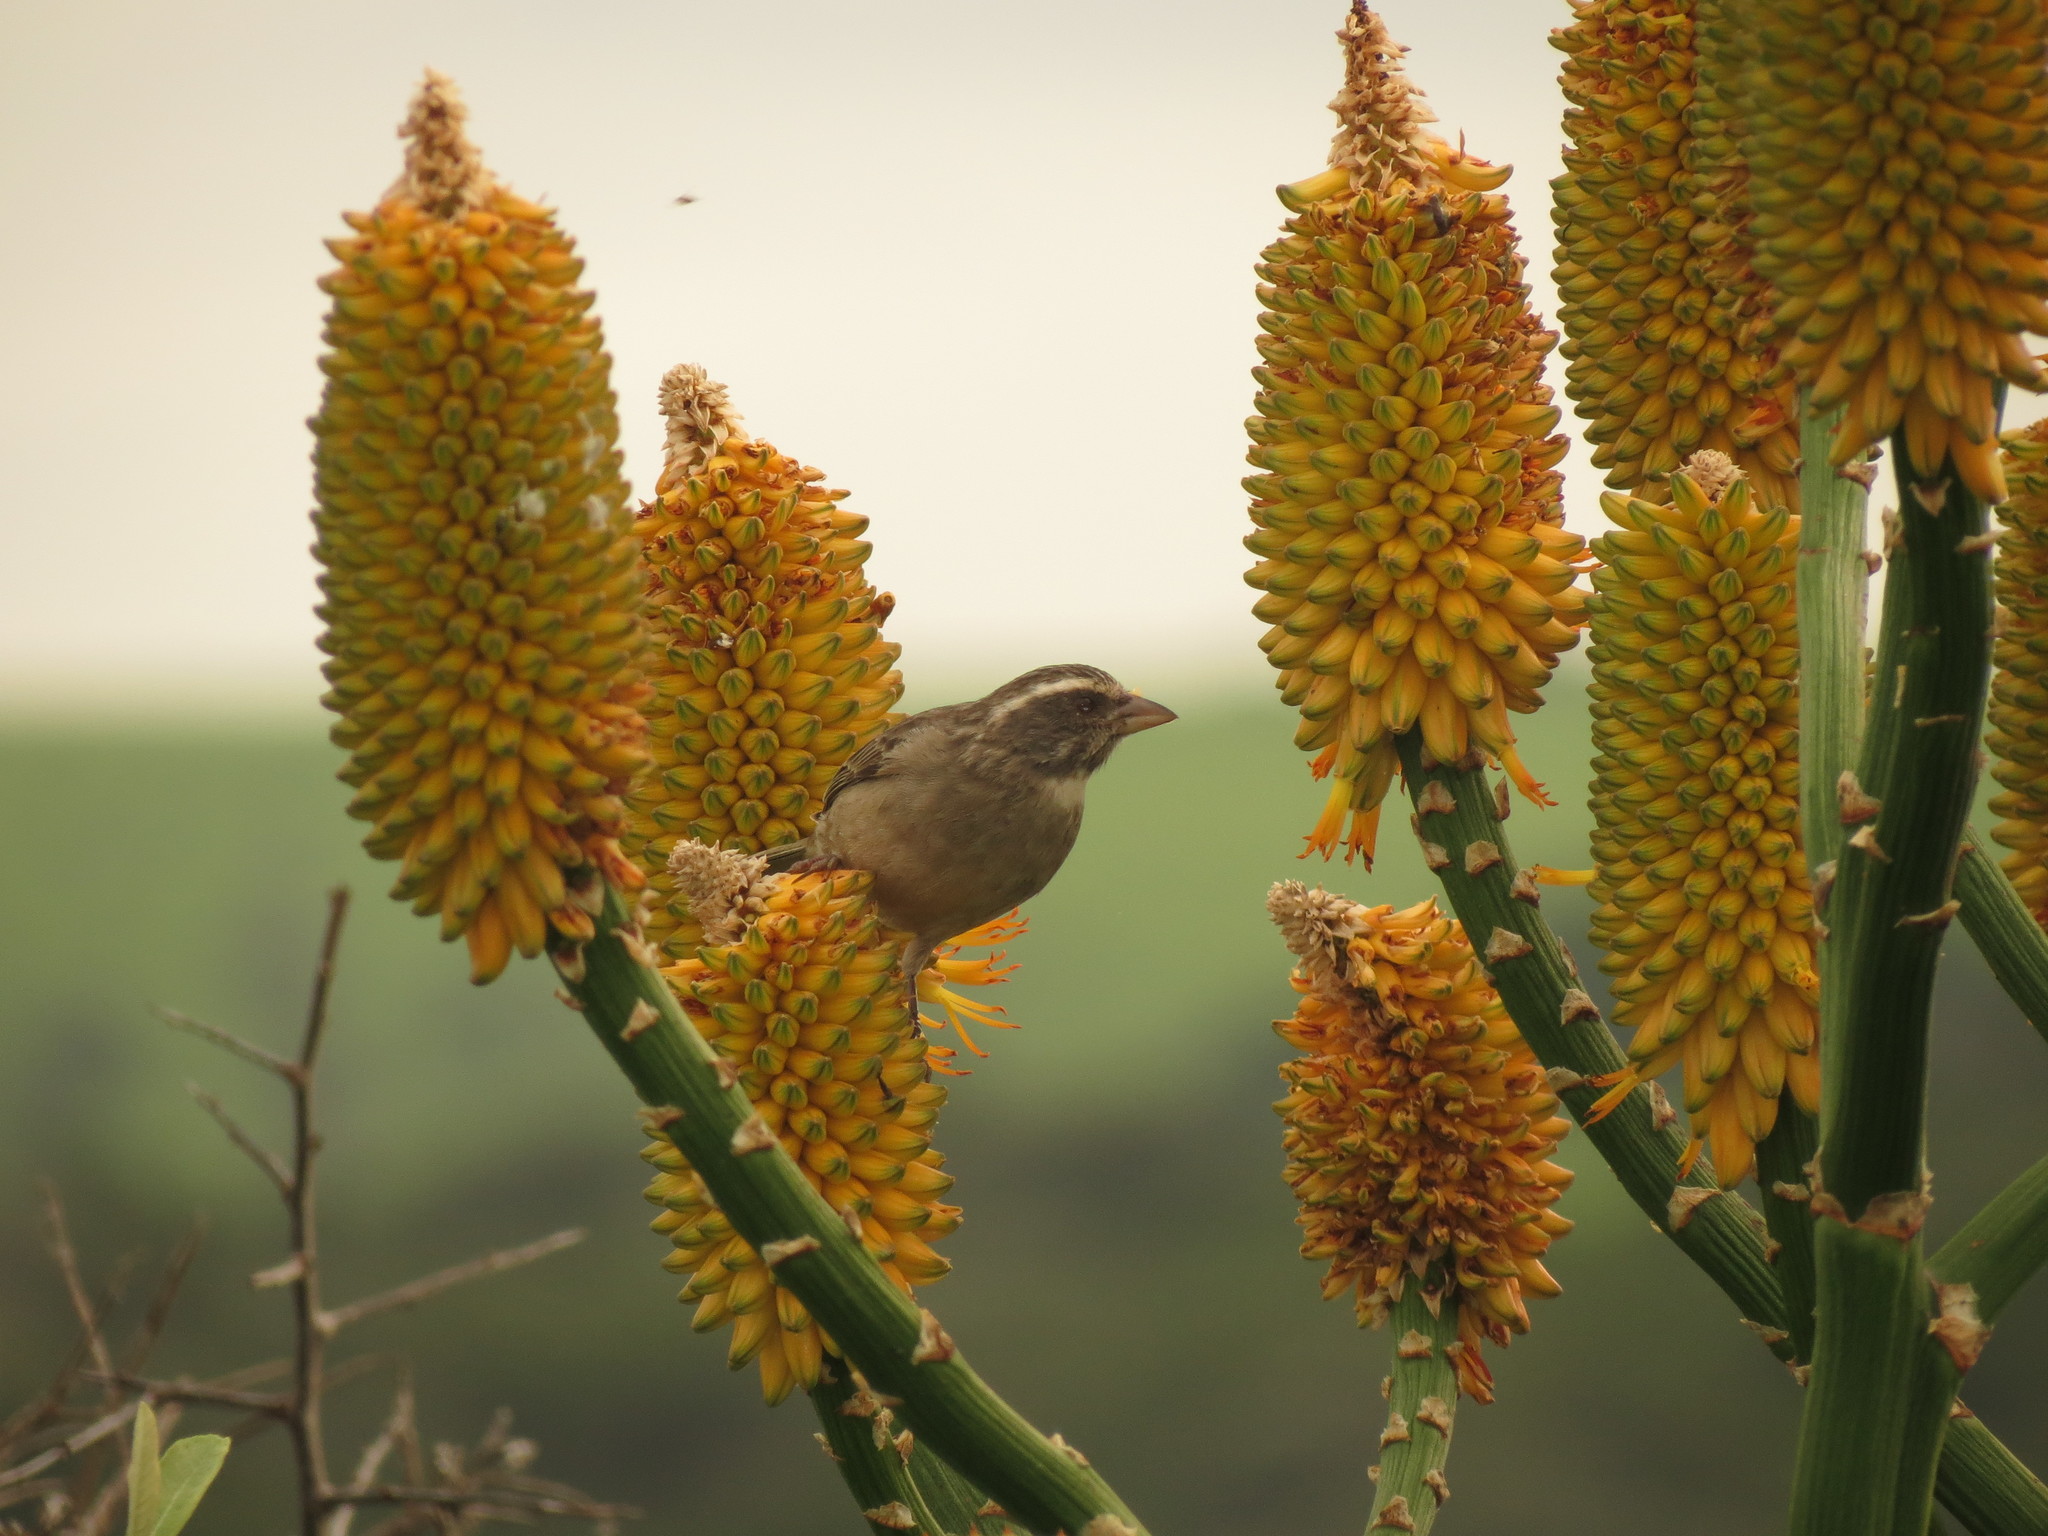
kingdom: Animalia
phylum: Chordata
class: Aves
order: Passeriformes
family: Fringillidae
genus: Crithagra
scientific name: Crithagra gularis
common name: Streaky-headed seedeater
